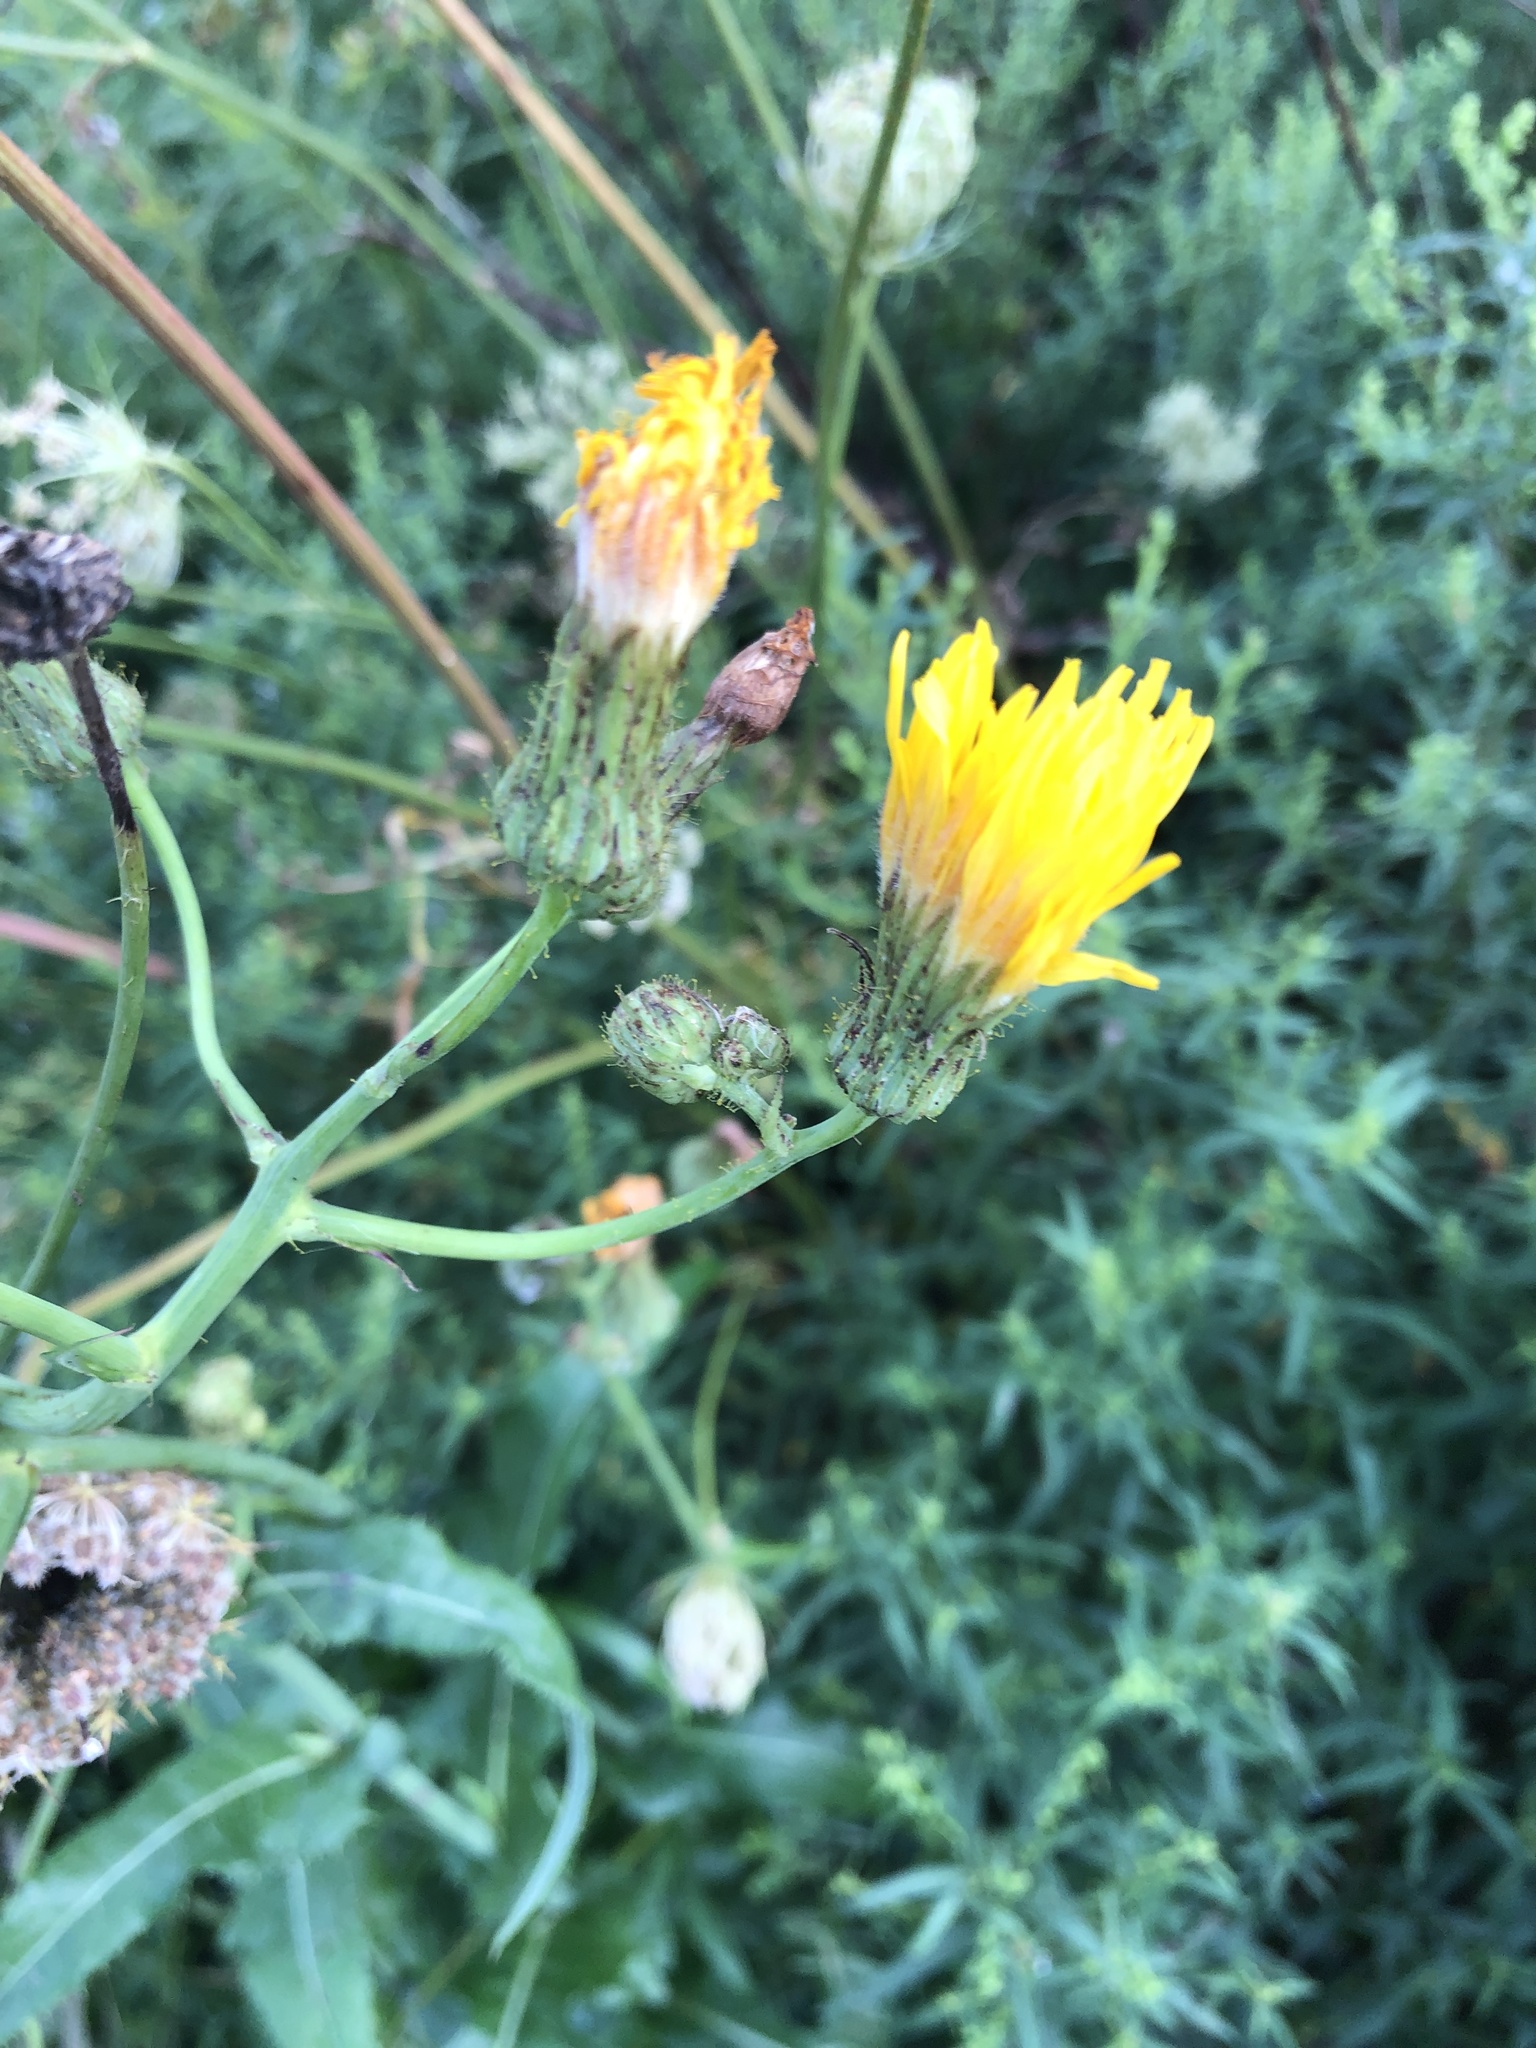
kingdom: Plantae
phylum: Tracheophyta
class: Magnoliopsida
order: Asterales
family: Asteraceae
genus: Sonchus
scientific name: Sonchus arvensis
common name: Perennial sow-thistle
